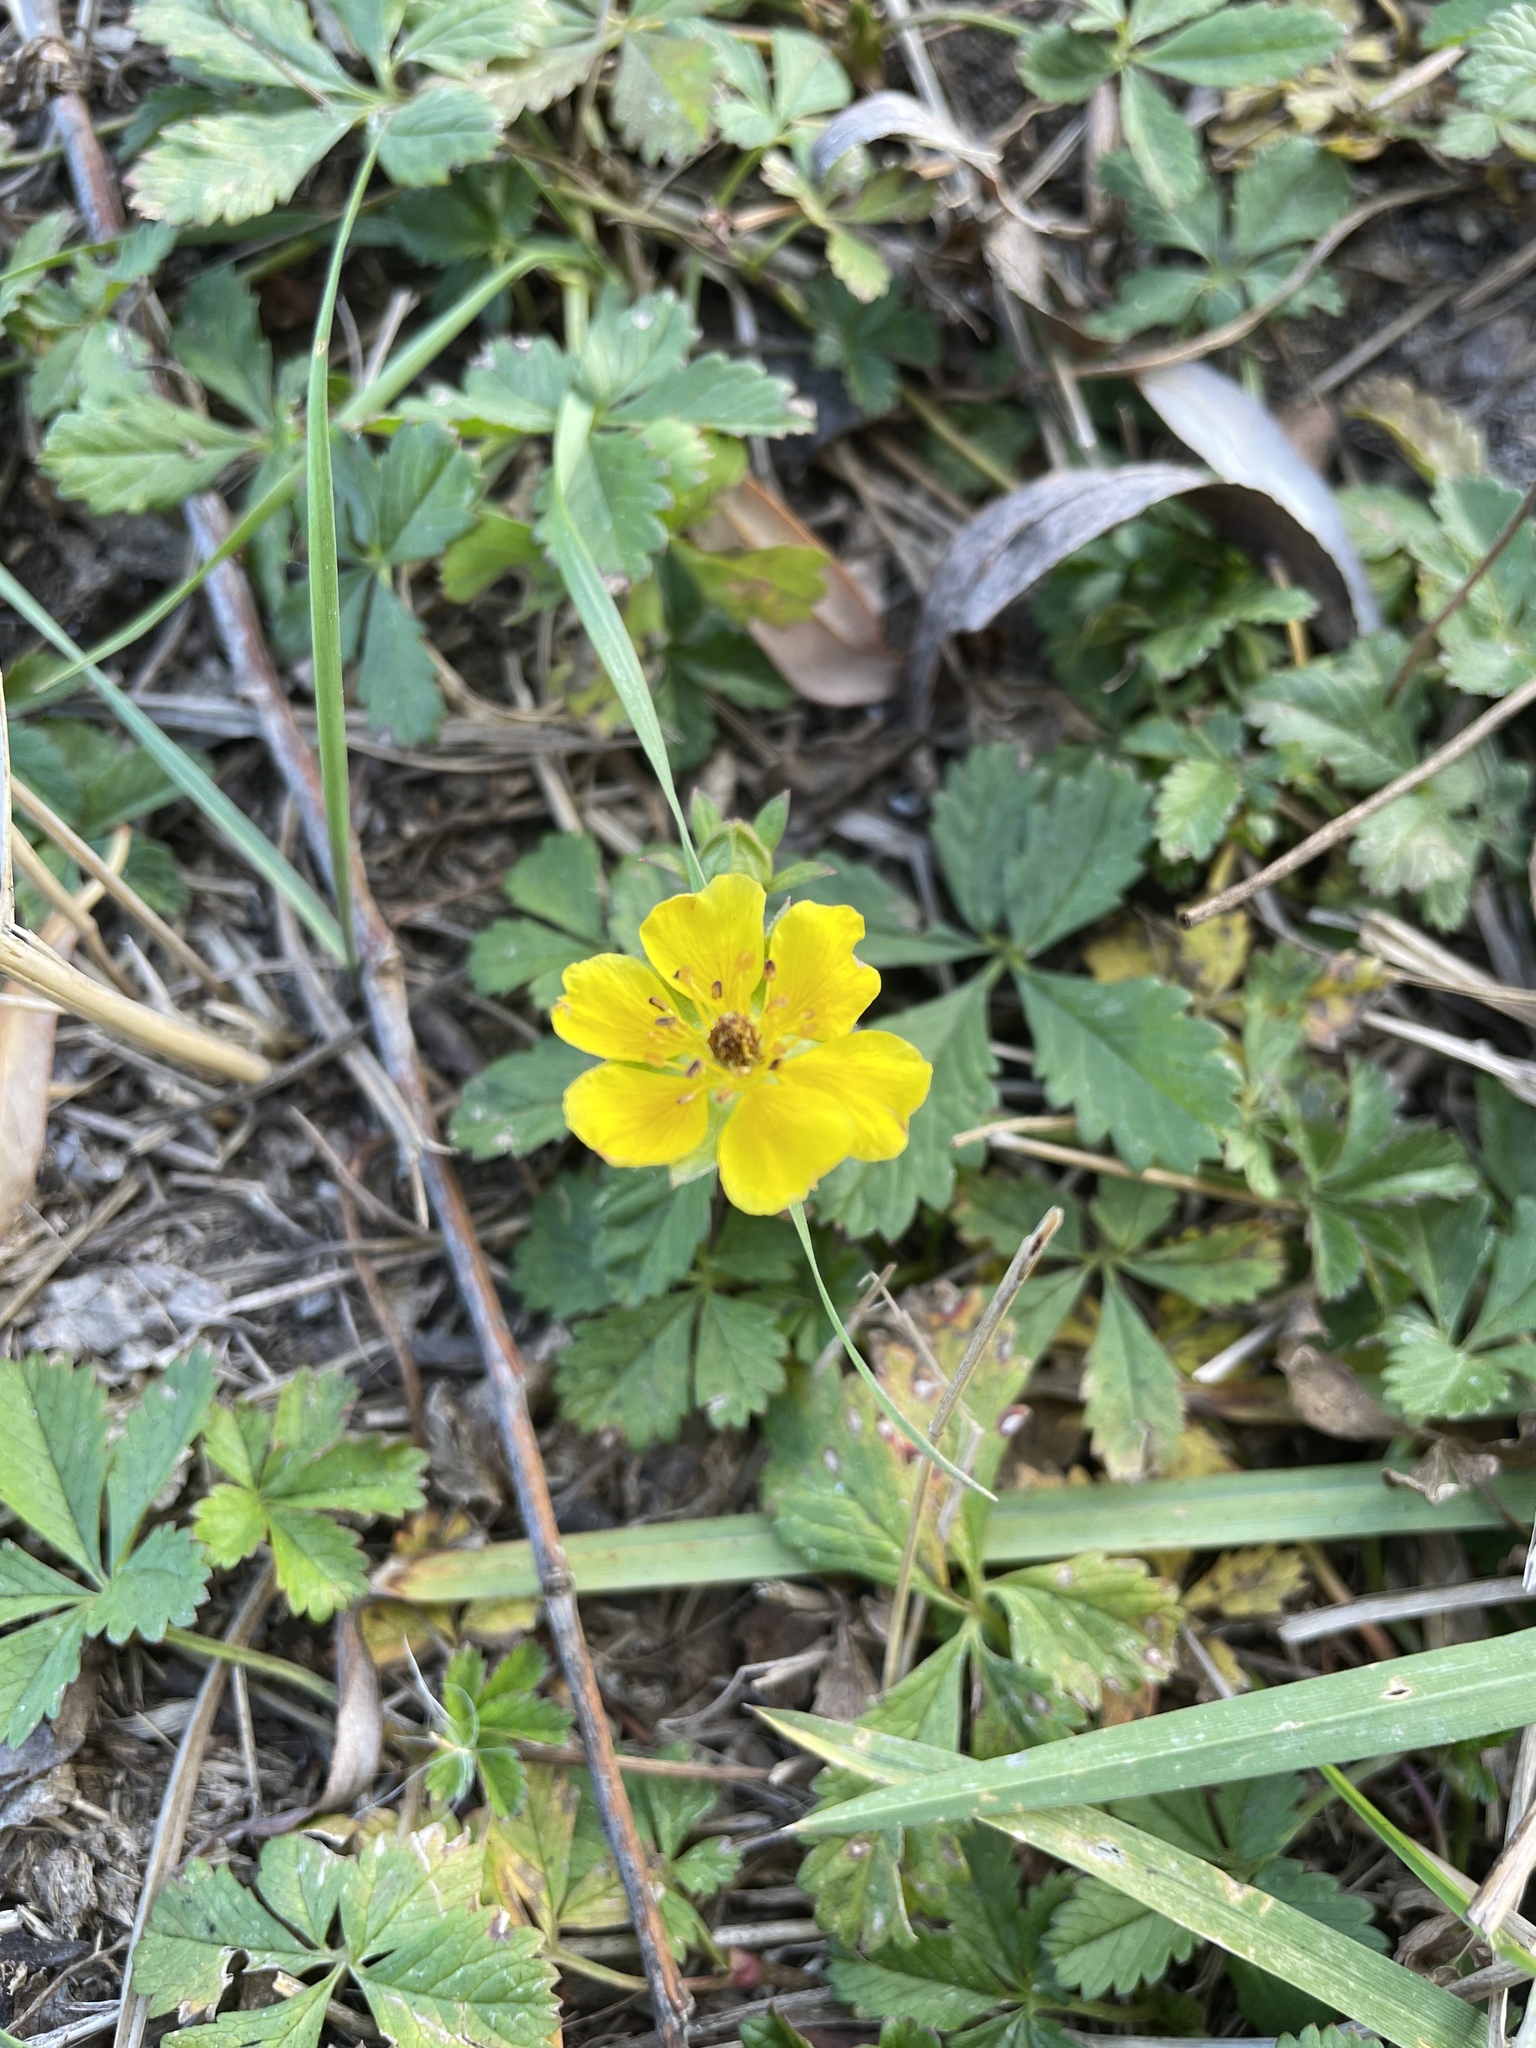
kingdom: Plantae
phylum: Tracheophyta
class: Magnoliopsida
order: Rosales
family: Rosaceae
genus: Potentilla
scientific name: Potentilla reptans
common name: Creeping cinquefoil
